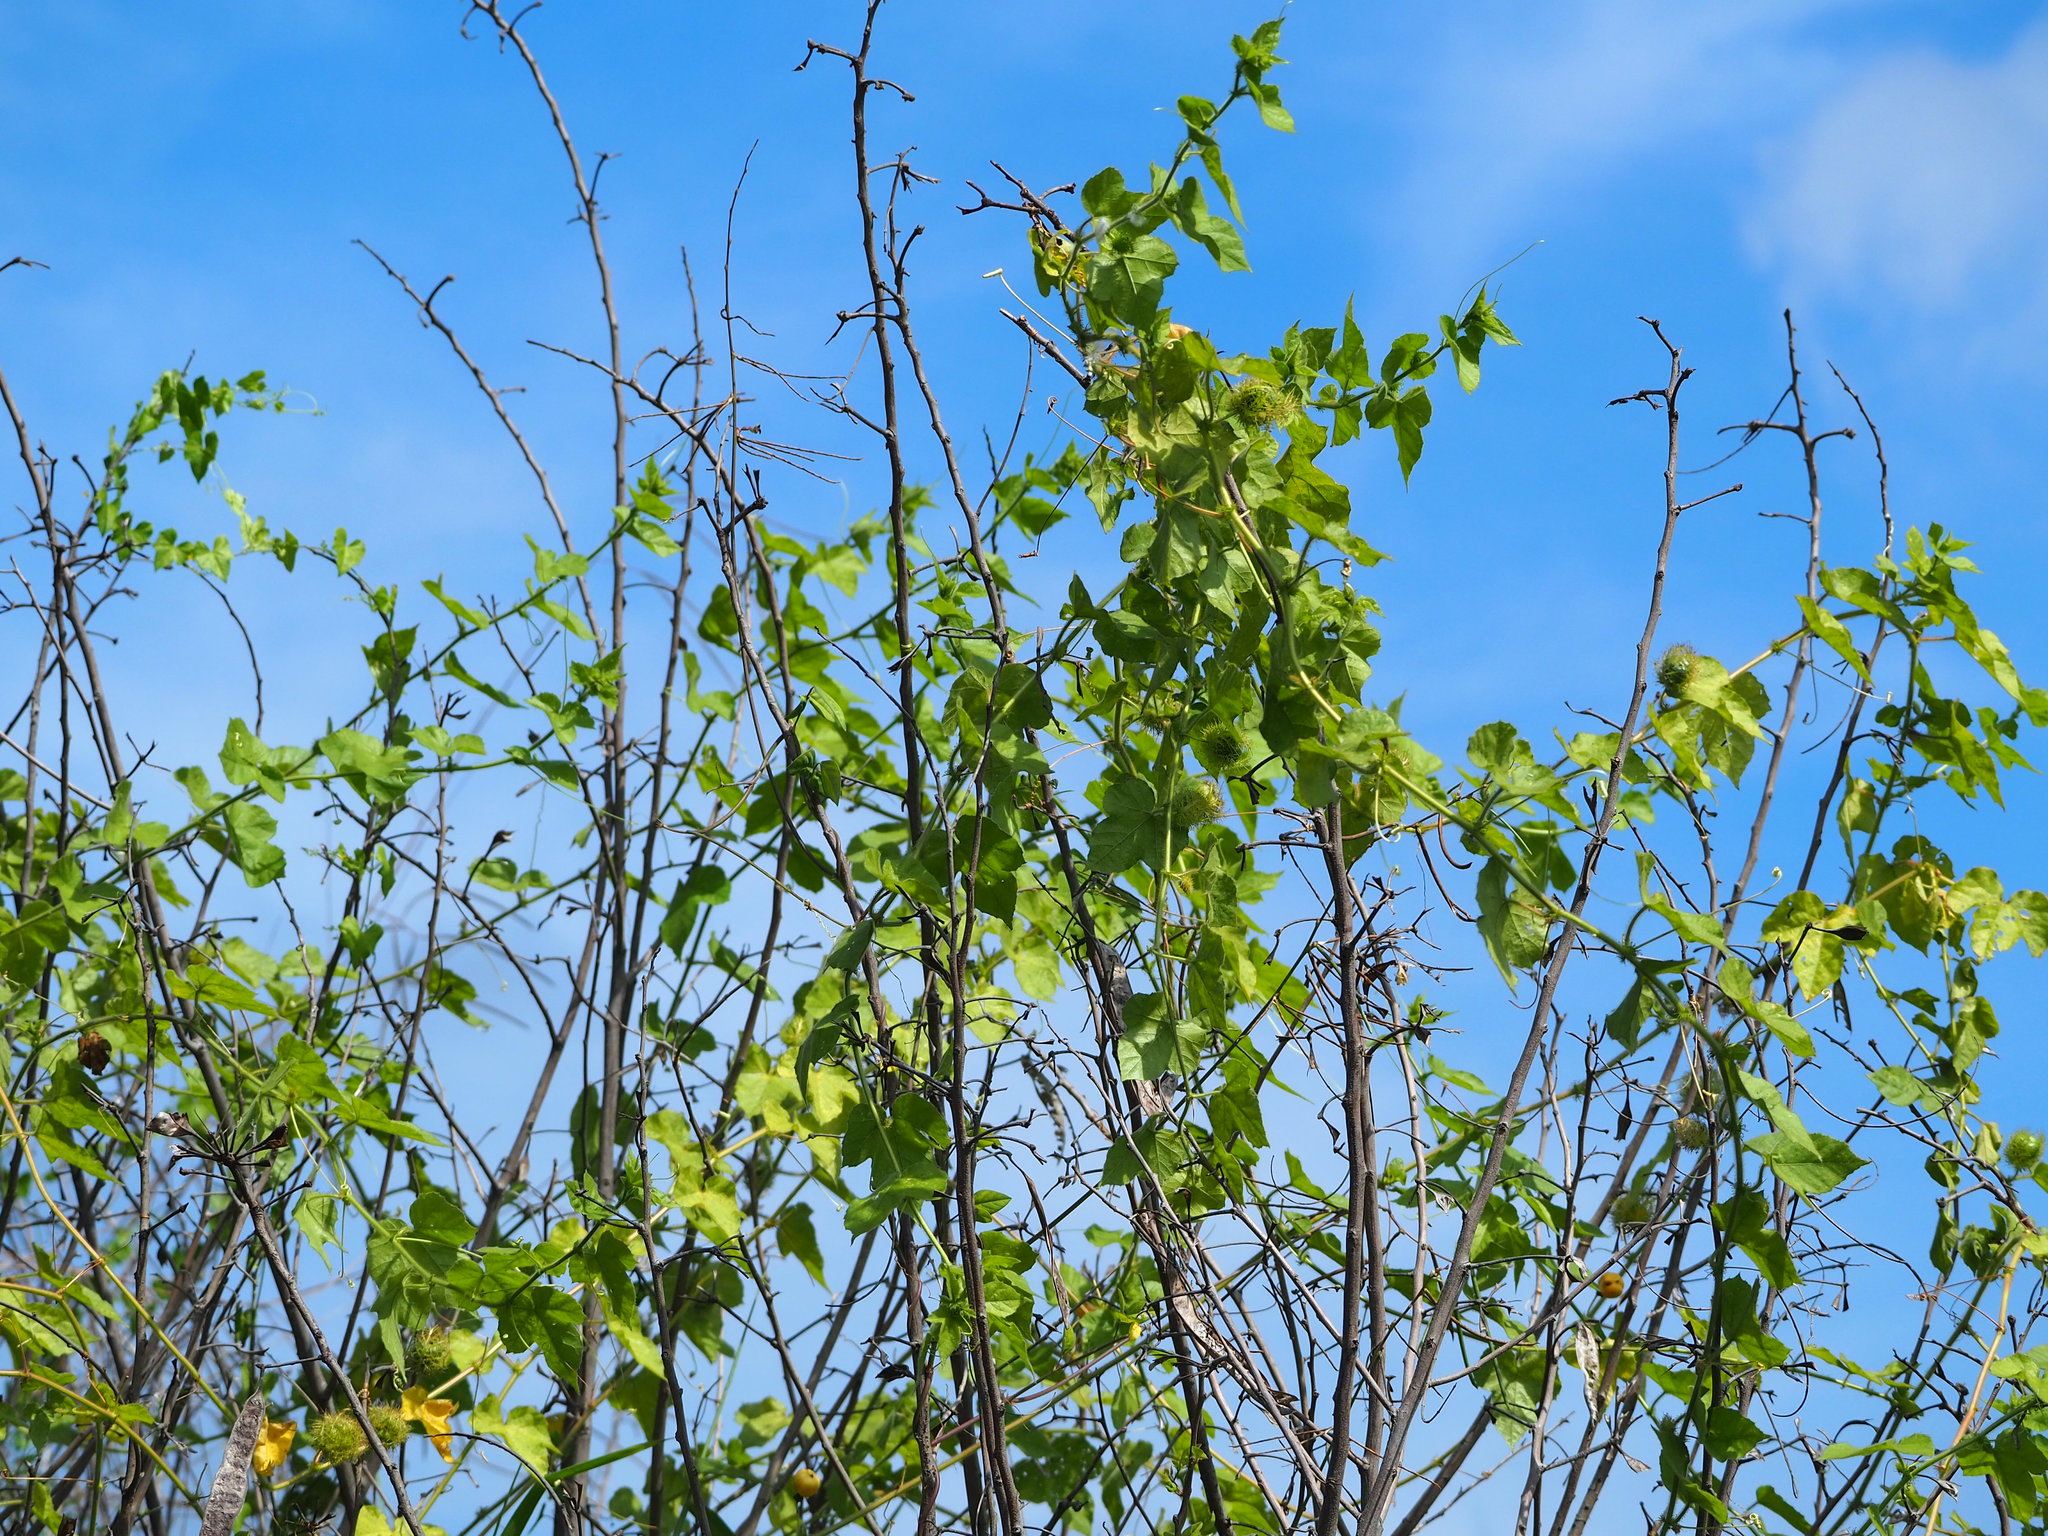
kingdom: Plantae
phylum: Tracheophyta
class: Magnoliopsida
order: Malpighiales
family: Passifloraceae
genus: Passiflora
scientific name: Passiflora vesicaria
